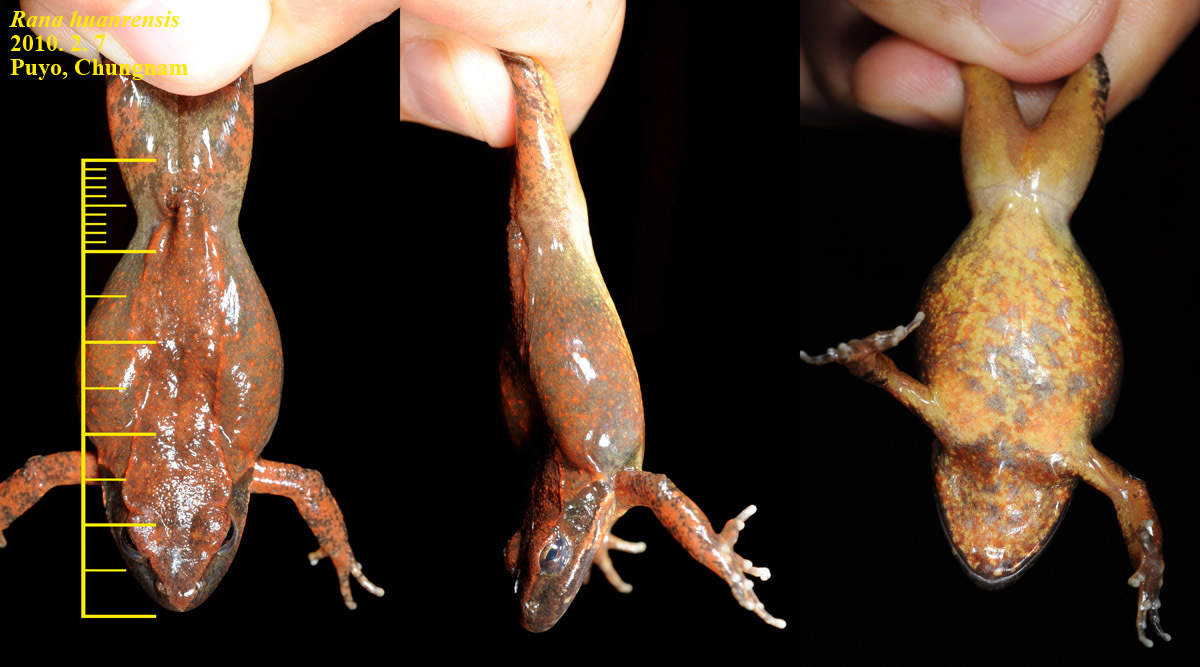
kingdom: Animalia
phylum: Chordata
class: Amphibia
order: Anura
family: Ranidae
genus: Rana
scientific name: Rana huanrenensis
